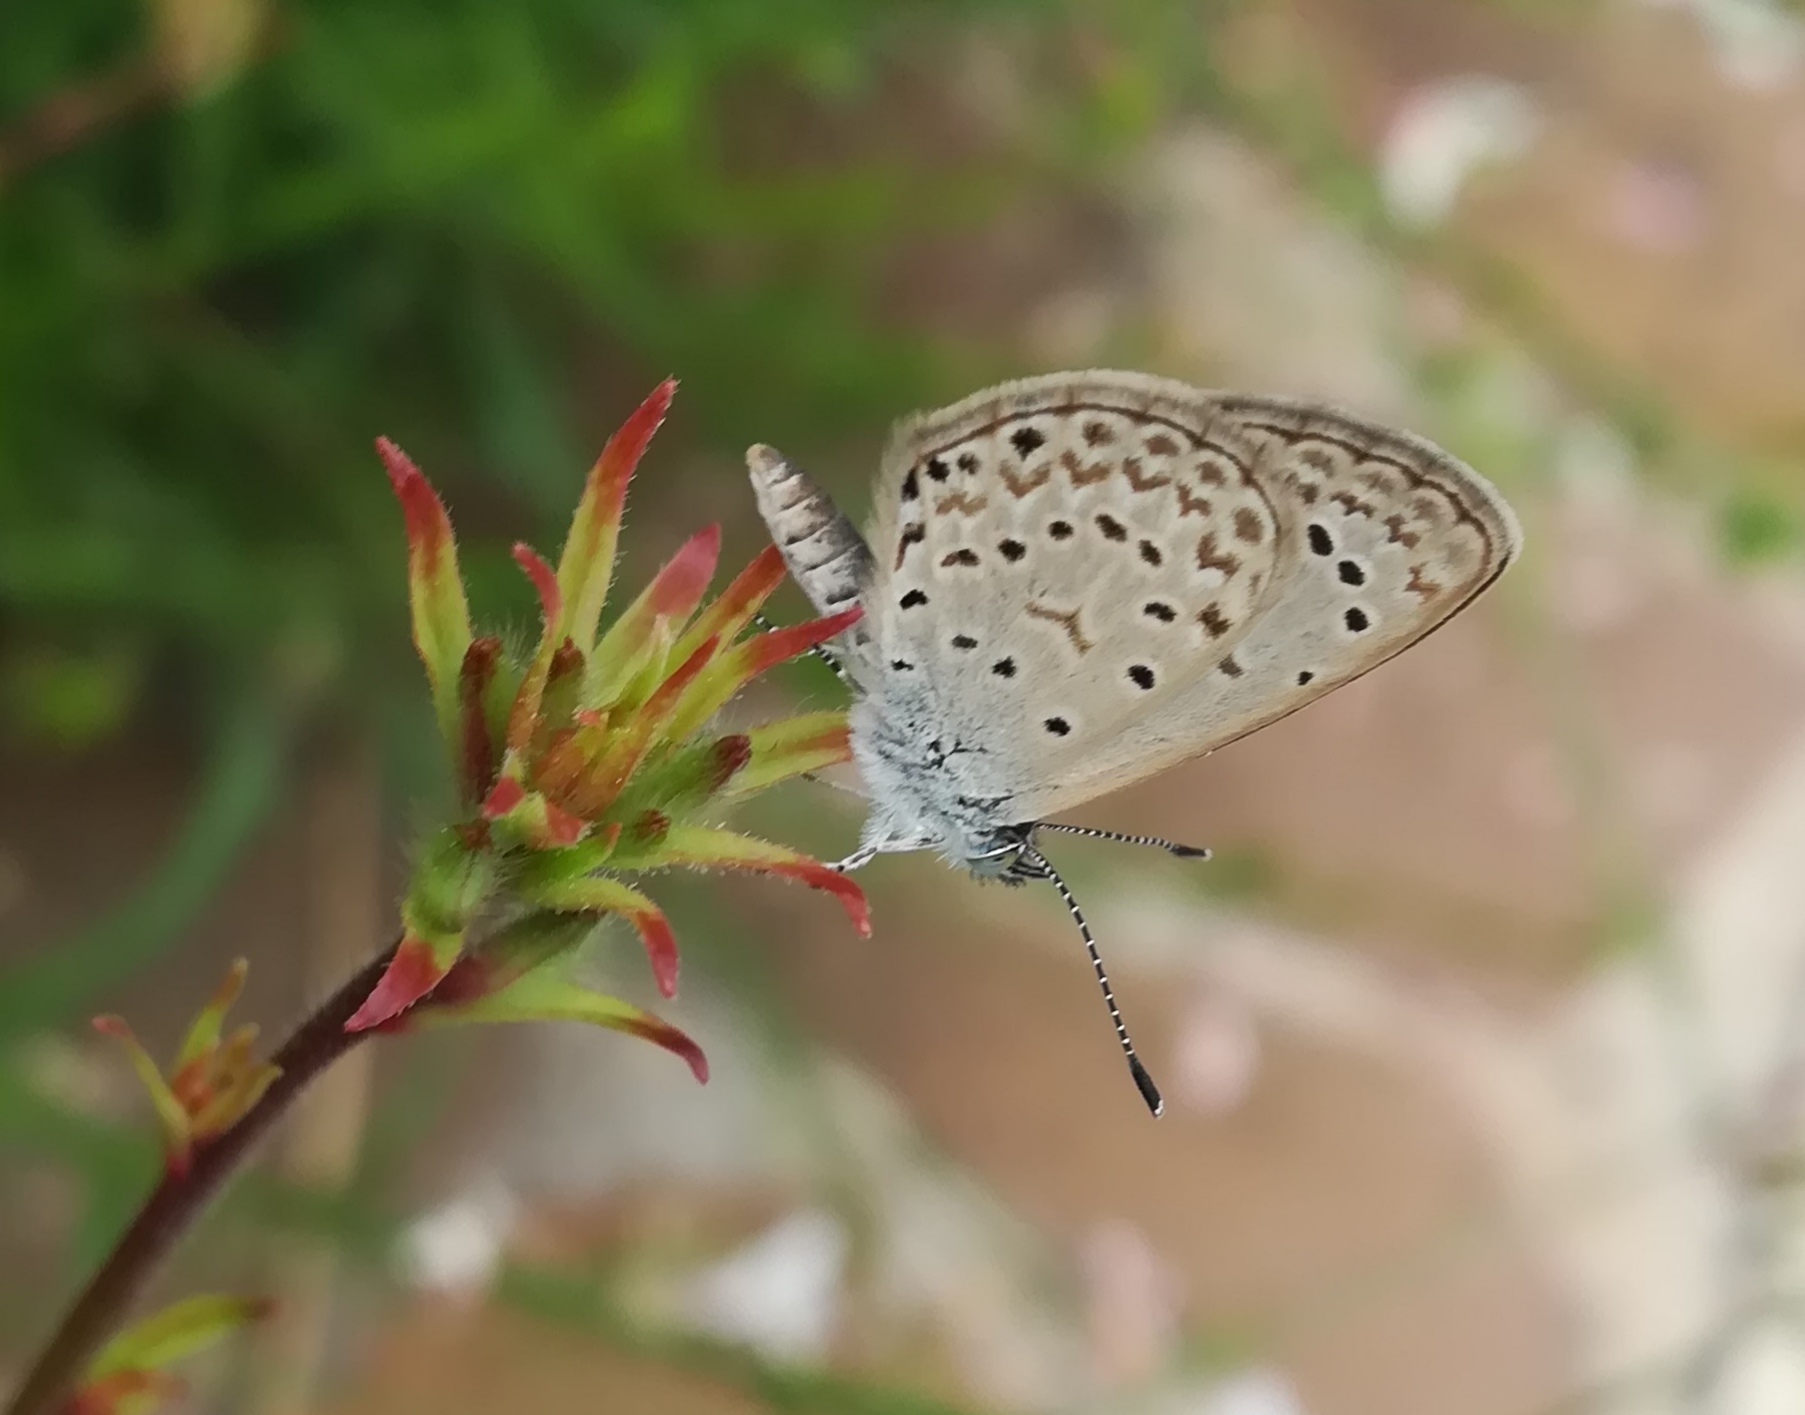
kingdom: Animalia
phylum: Arthropoda
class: Insecta
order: Lepidoptera
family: Lycaenidae
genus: Zizeeria
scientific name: Zizeeria knysna
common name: African grass blue
